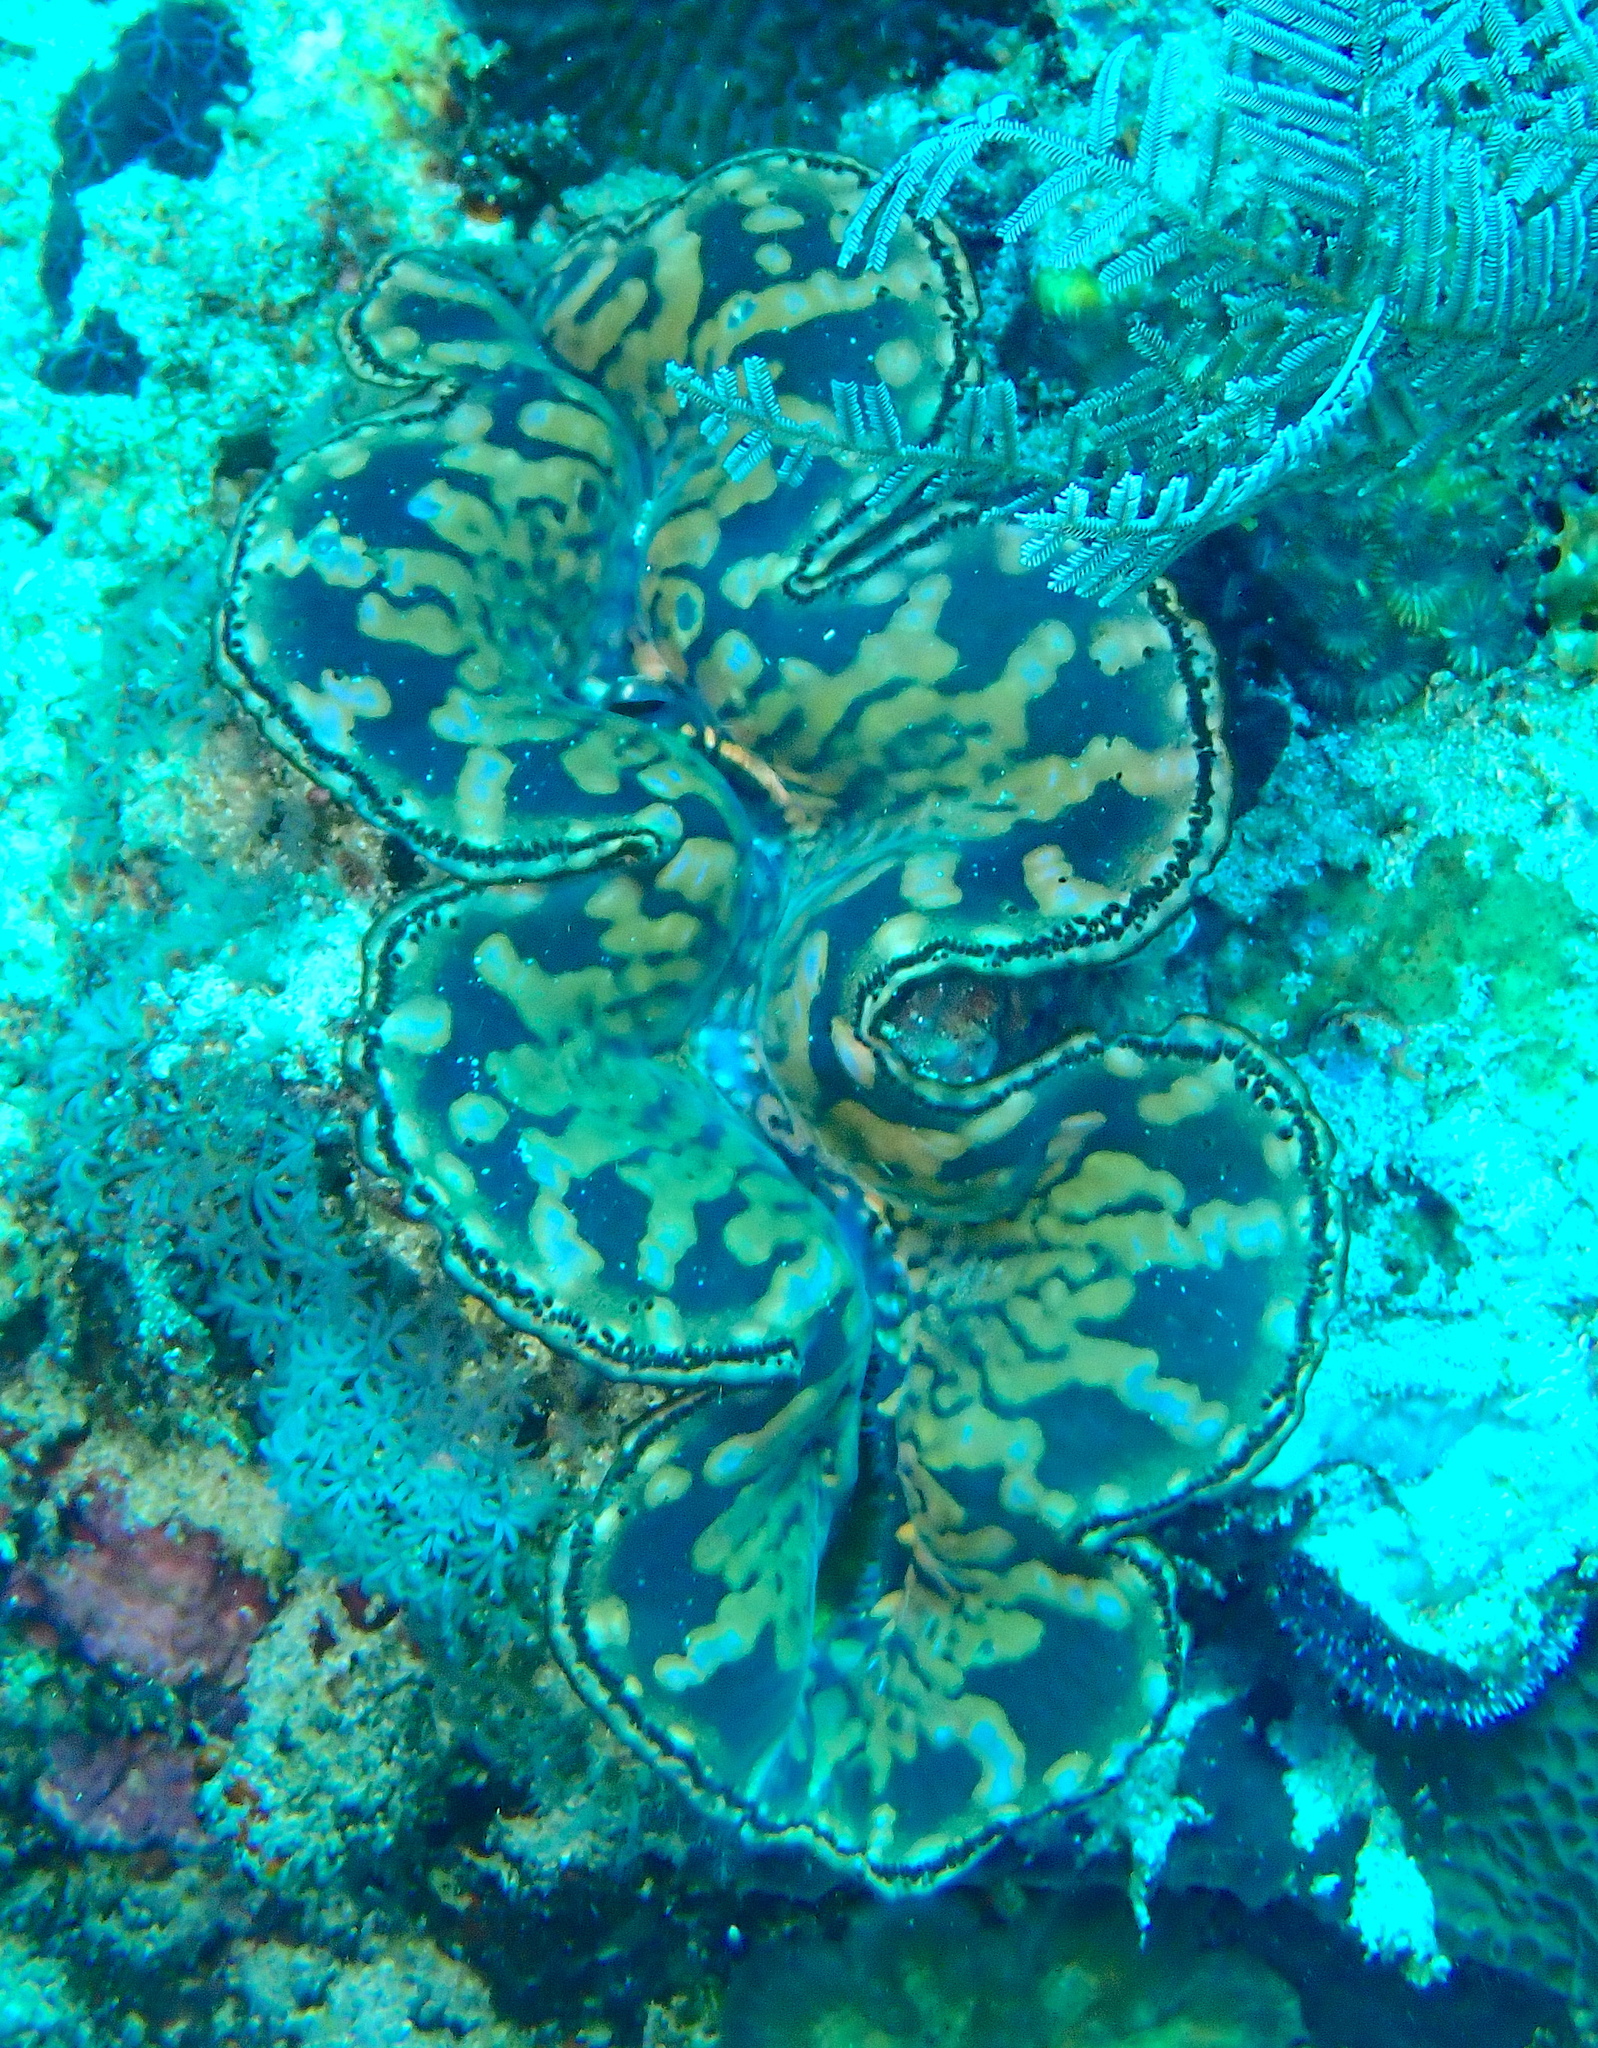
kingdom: Animalia
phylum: Mollusca
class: Bivalvia
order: Cardiida
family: Cardiidae
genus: Tridacna
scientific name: Tridacna squamosa
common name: Fluted clam
